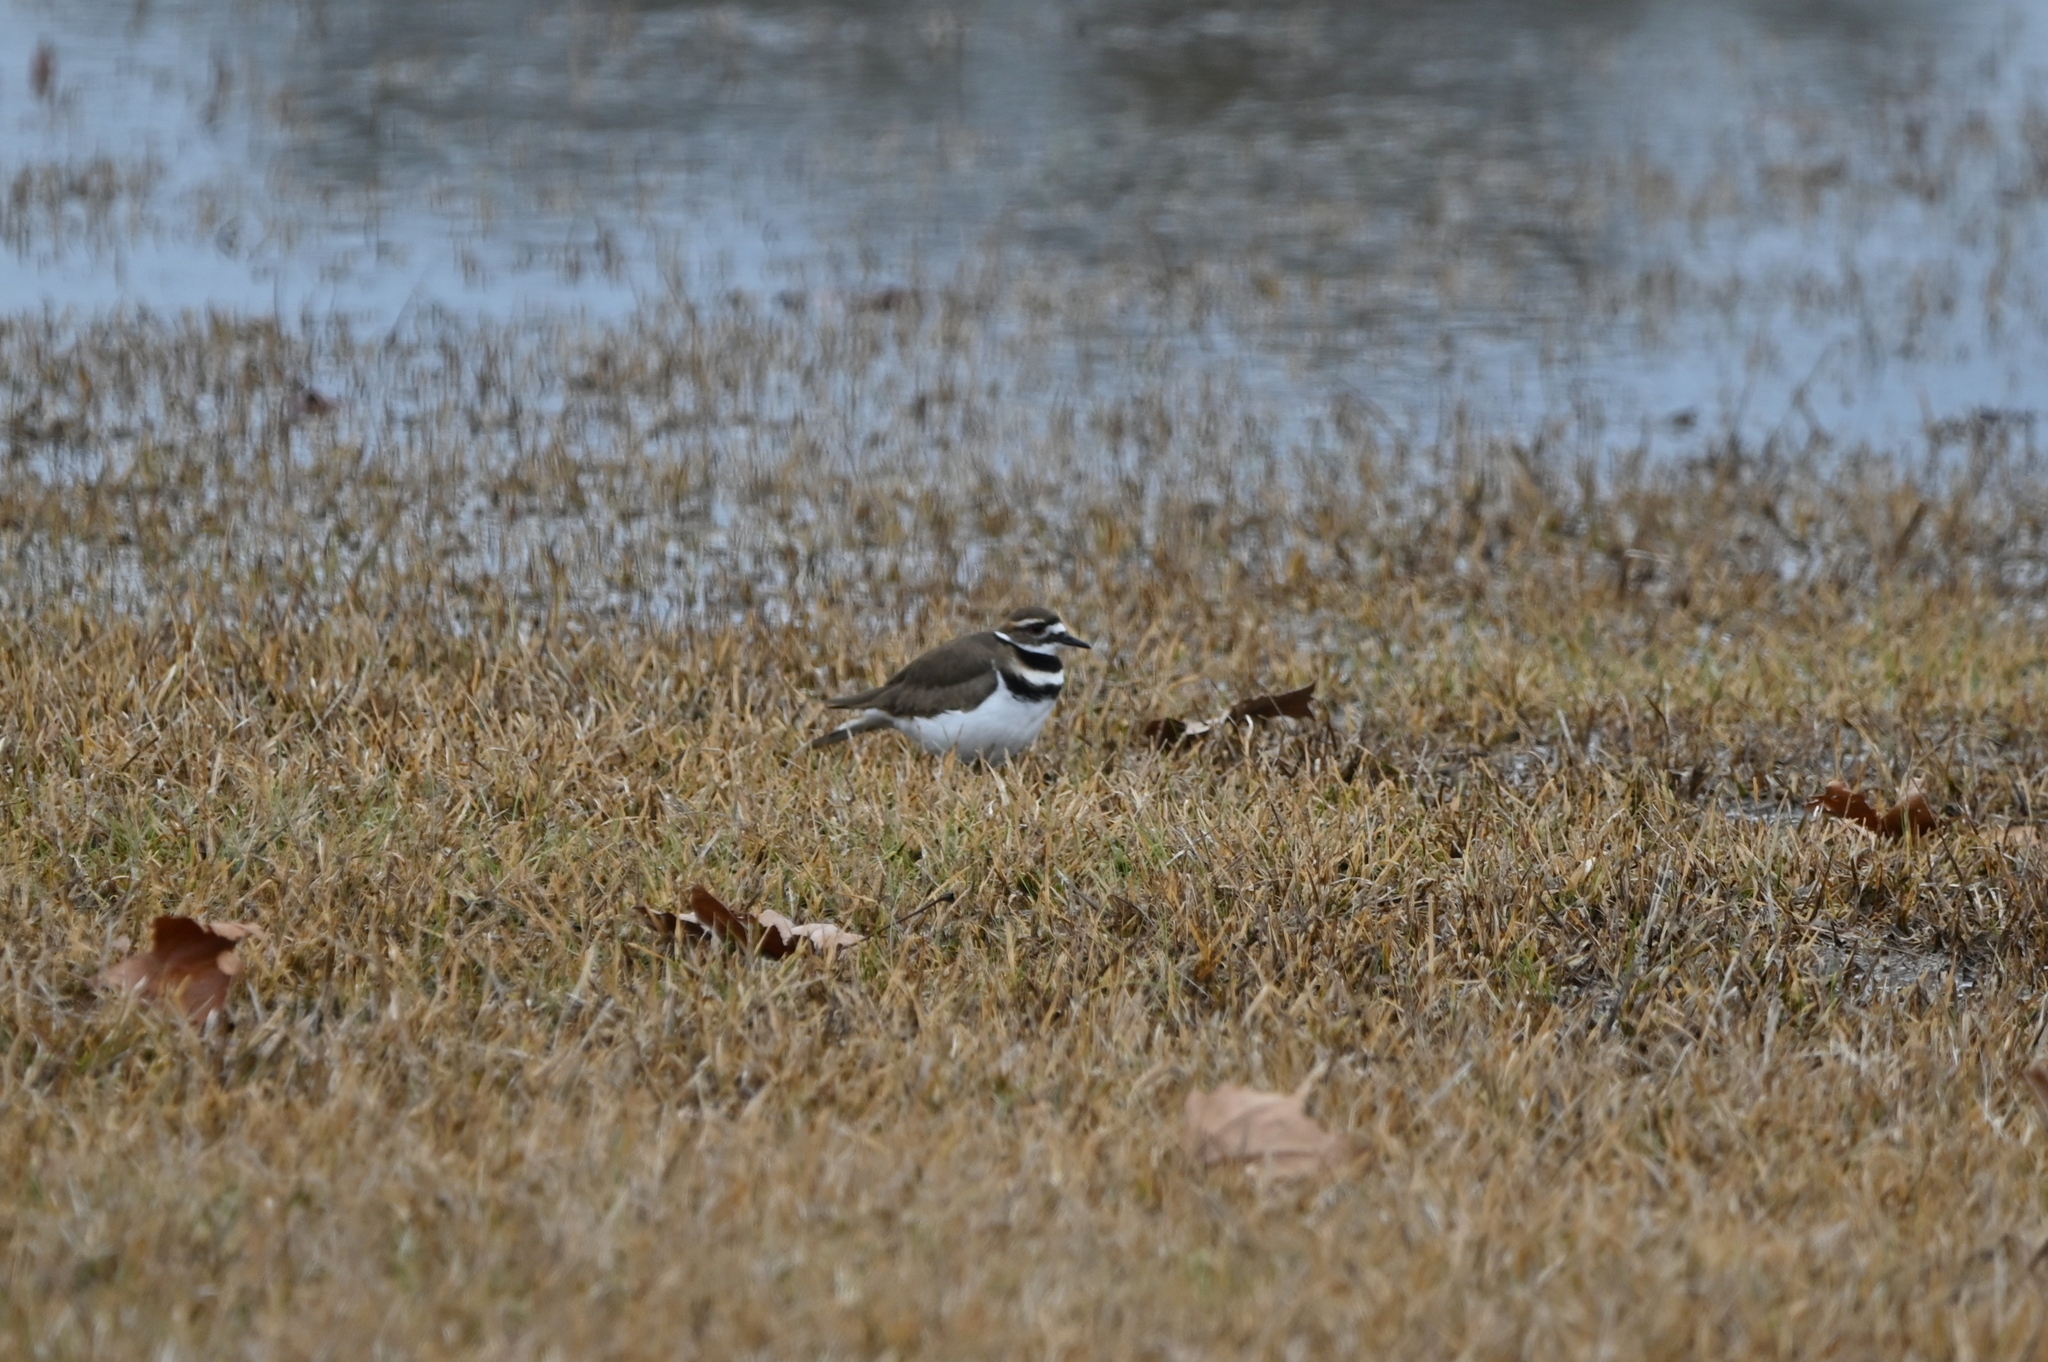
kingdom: Animalia
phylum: Chordata
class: Aves
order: Charadriiformes
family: Charadriidae
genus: Charadrius
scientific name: Charadrius vociferus
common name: Killdeer
